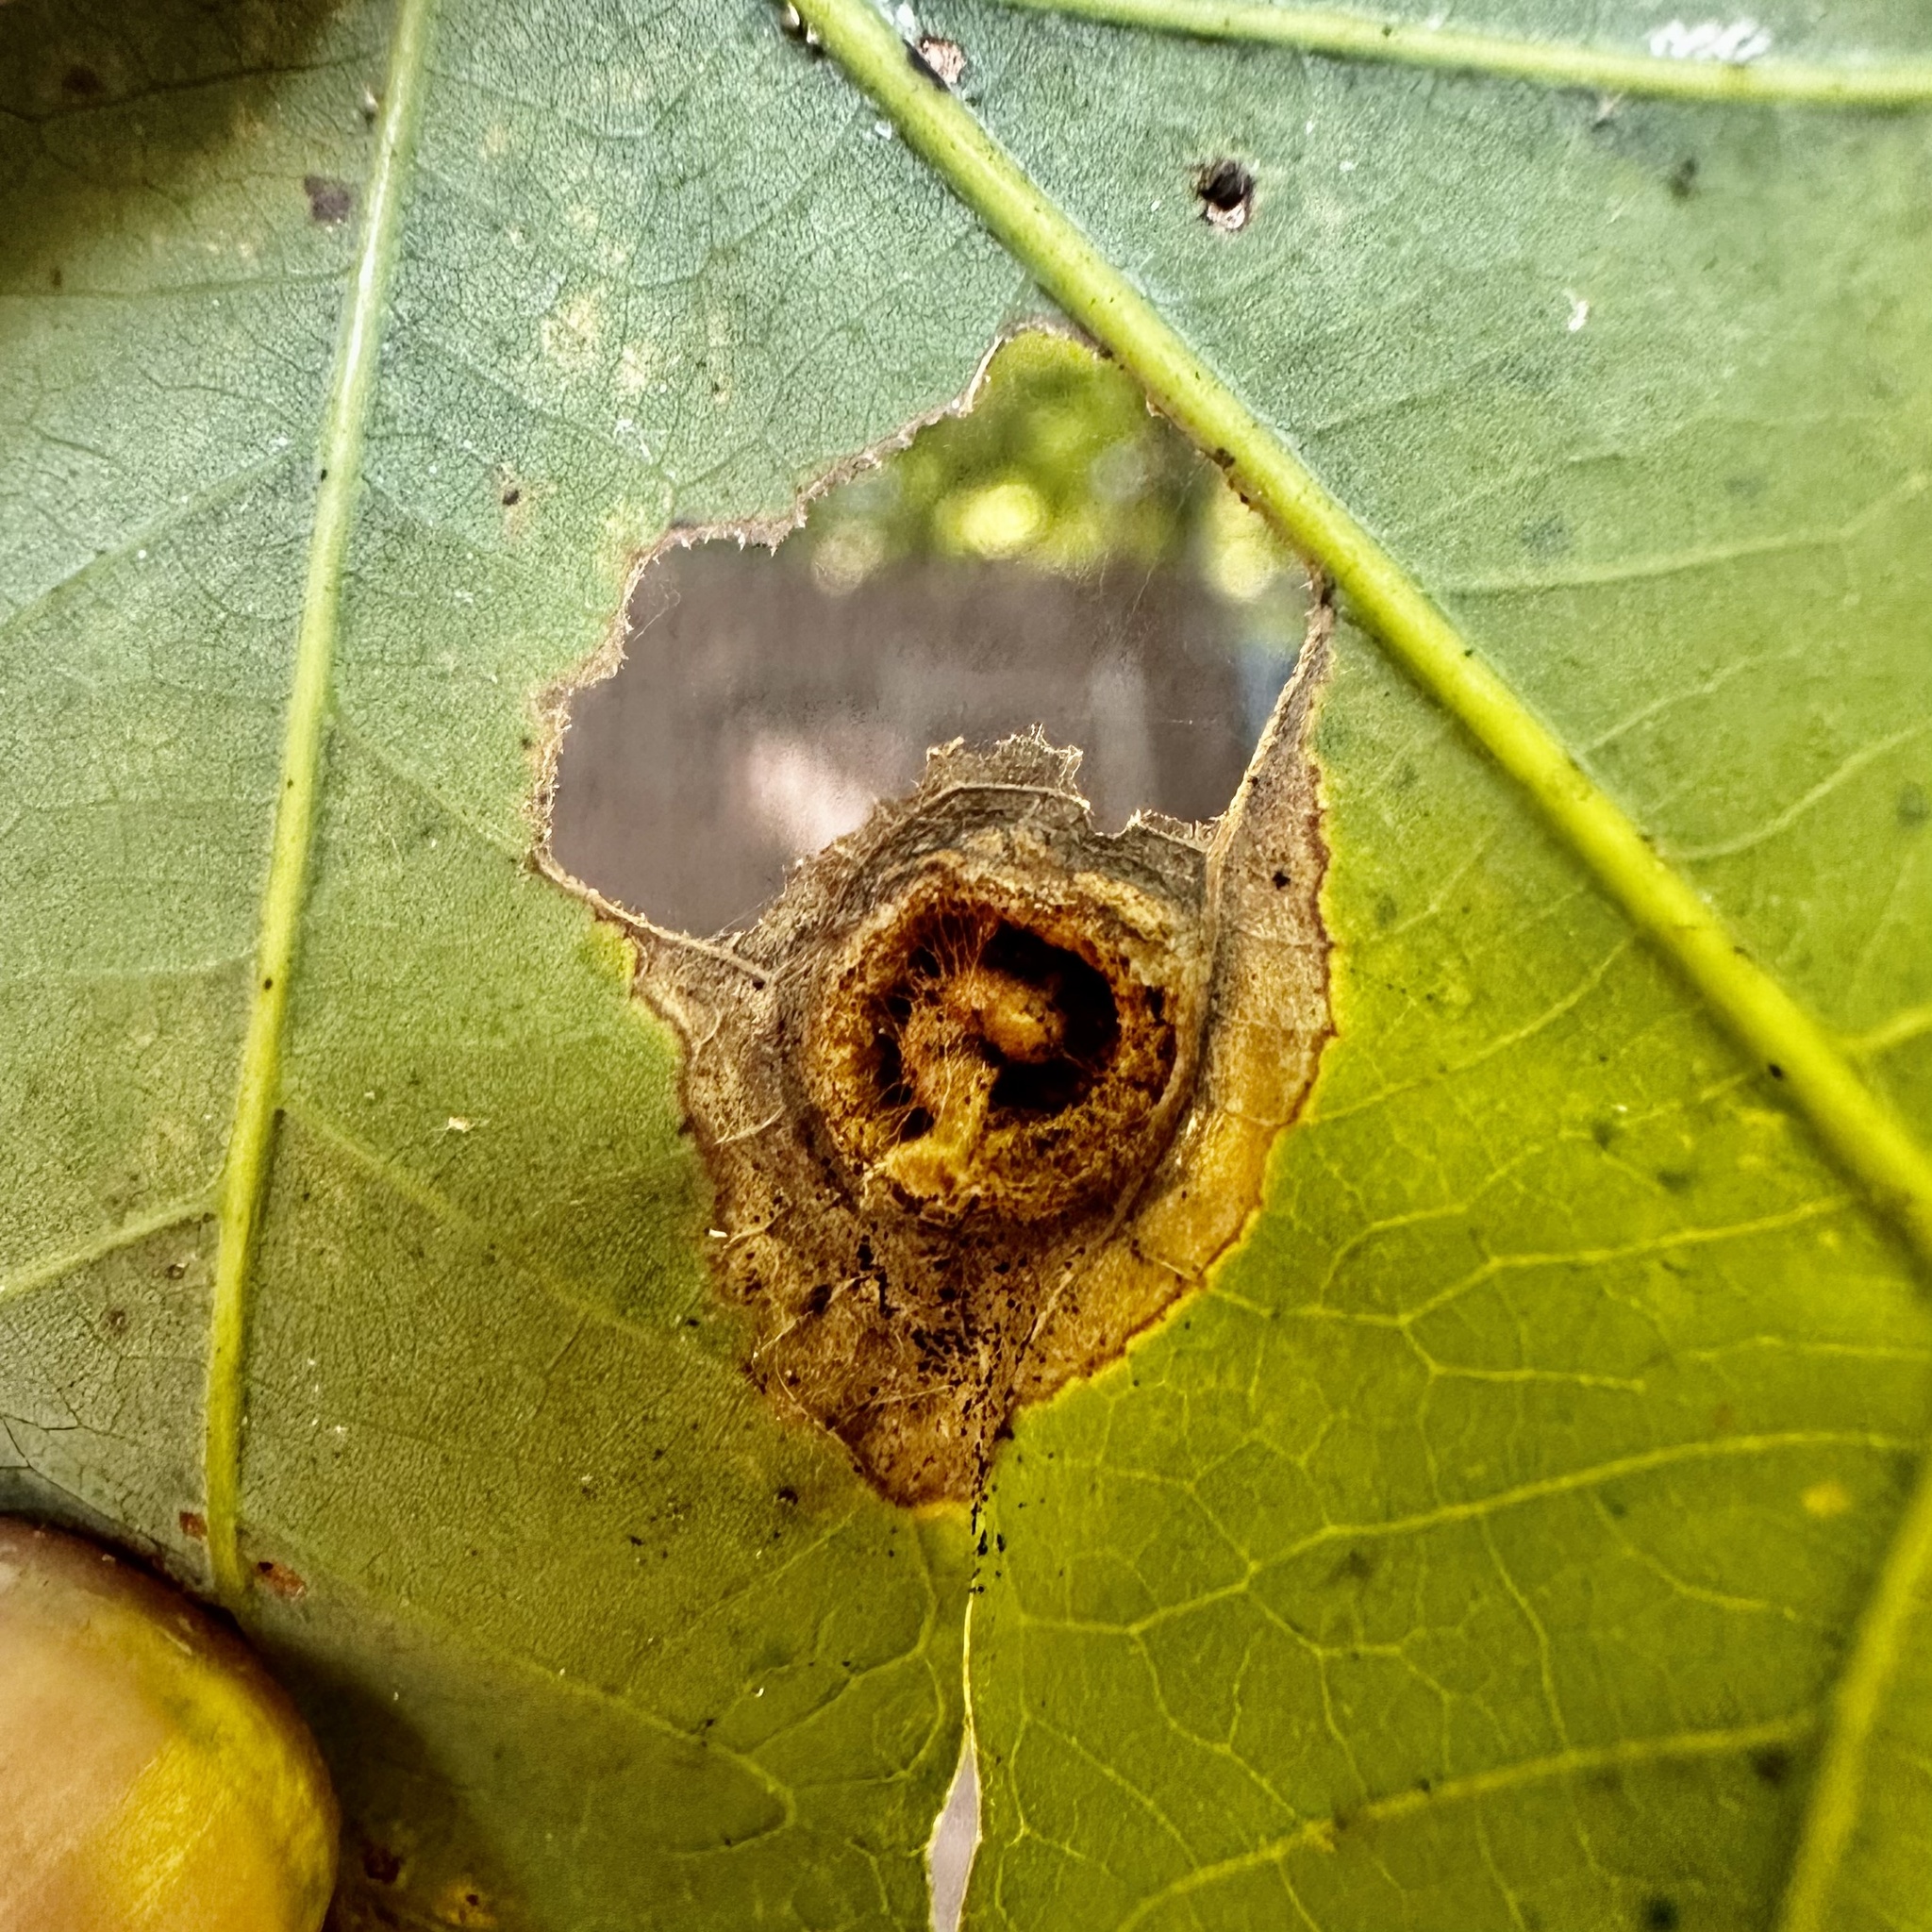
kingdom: Animalia
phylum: Arthropoda
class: Insecta
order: Hymenoptera
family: Cynipidae
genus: Callirhytis
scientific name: Callirhytis
